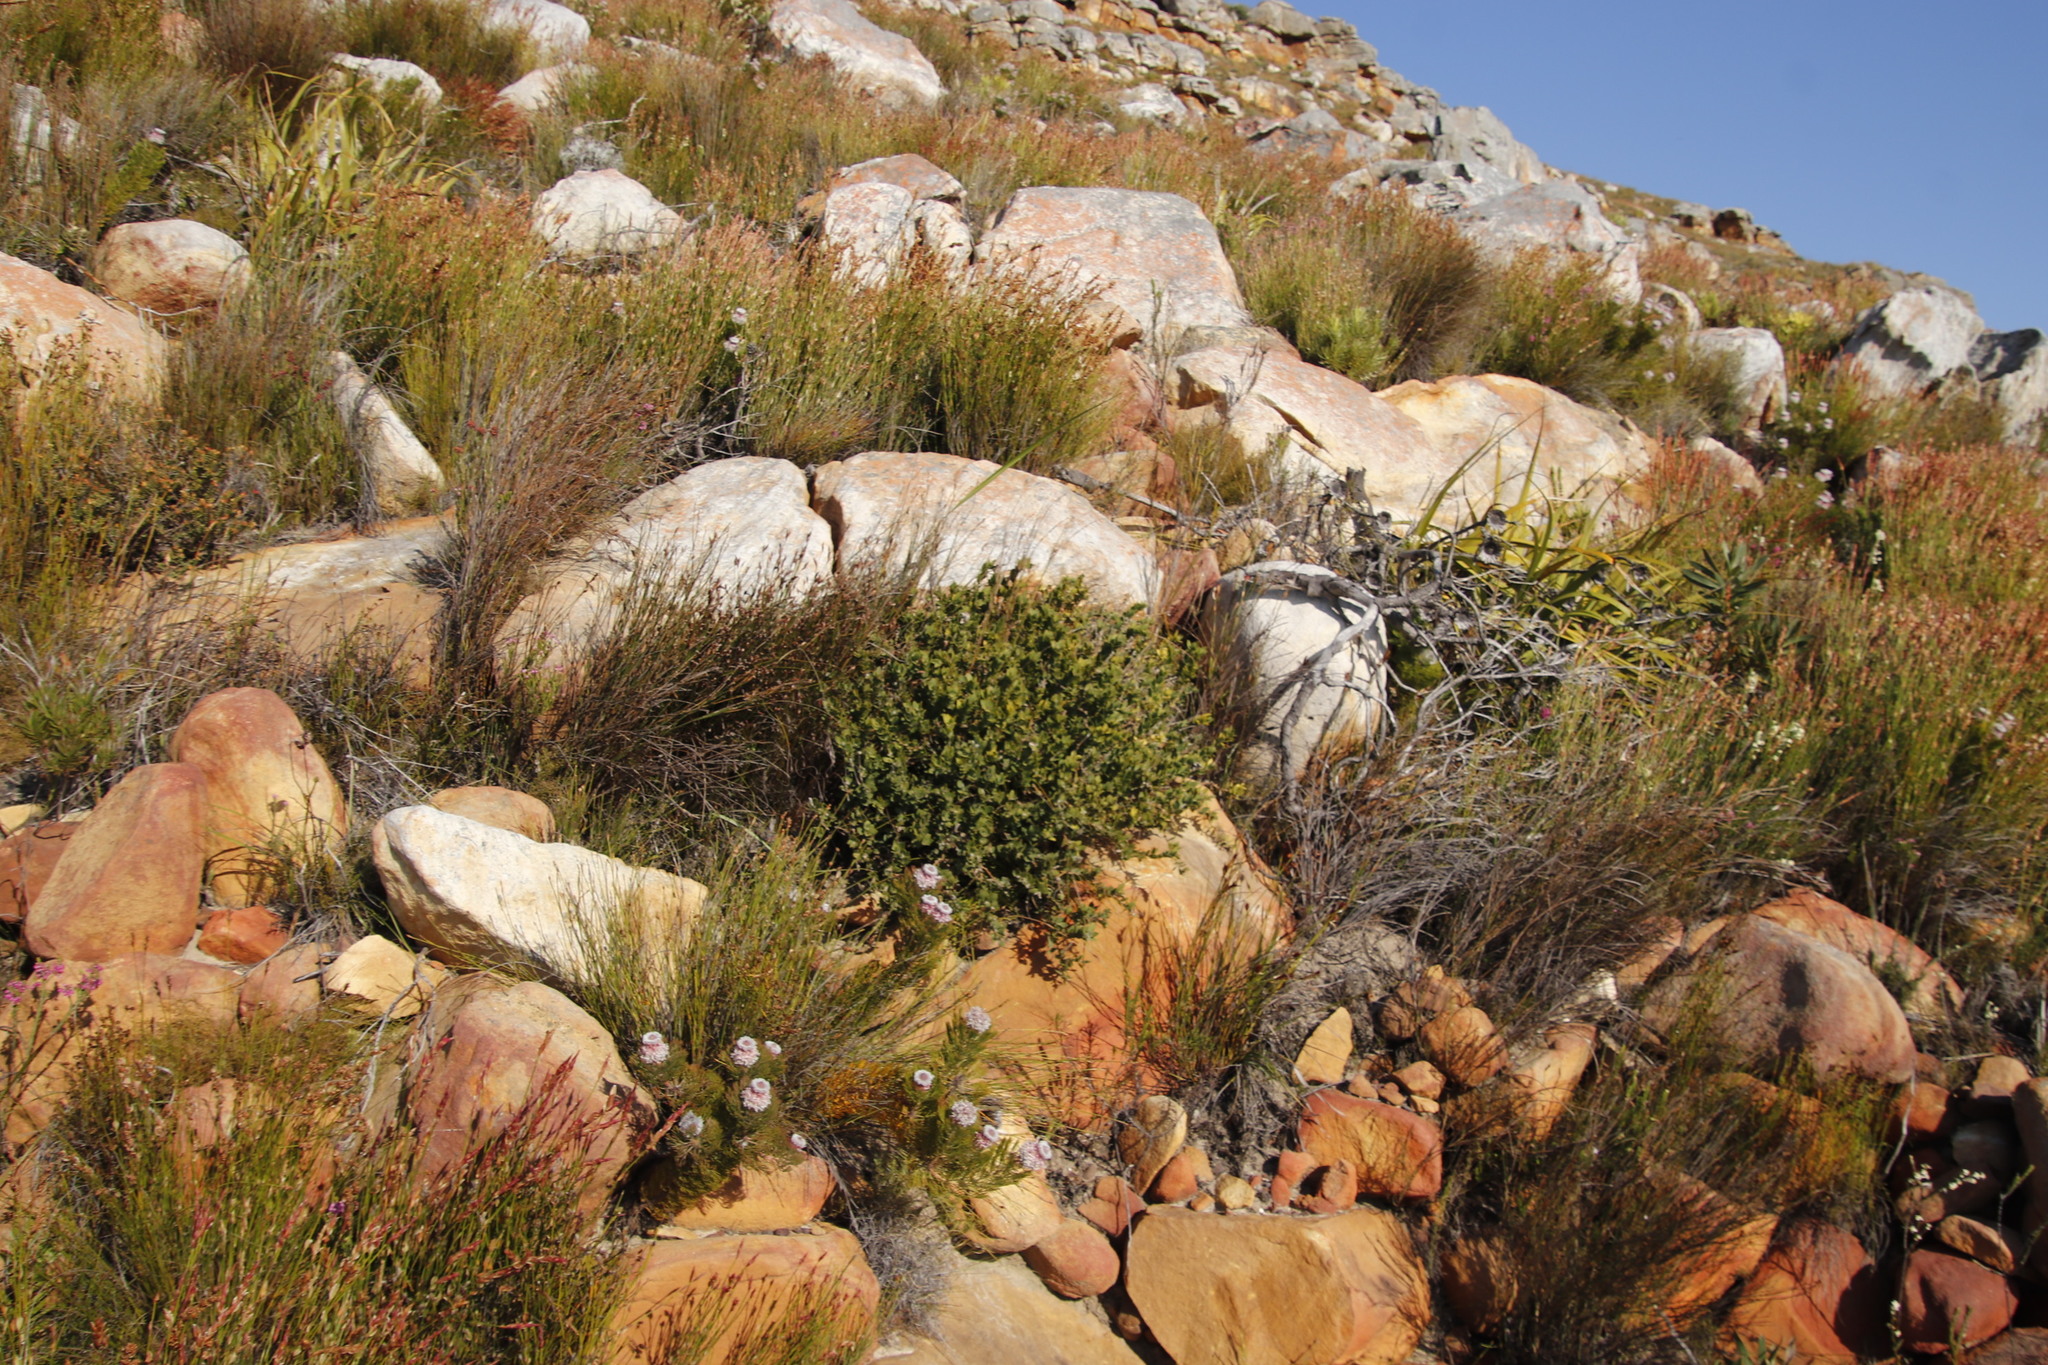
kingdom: Plantae
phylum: Tracheophyta
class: Magnoliopsida
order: Ericales
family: Ebenaceae
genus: Diospyros
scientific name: Diospyros glabra
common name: Fynbos star apple
